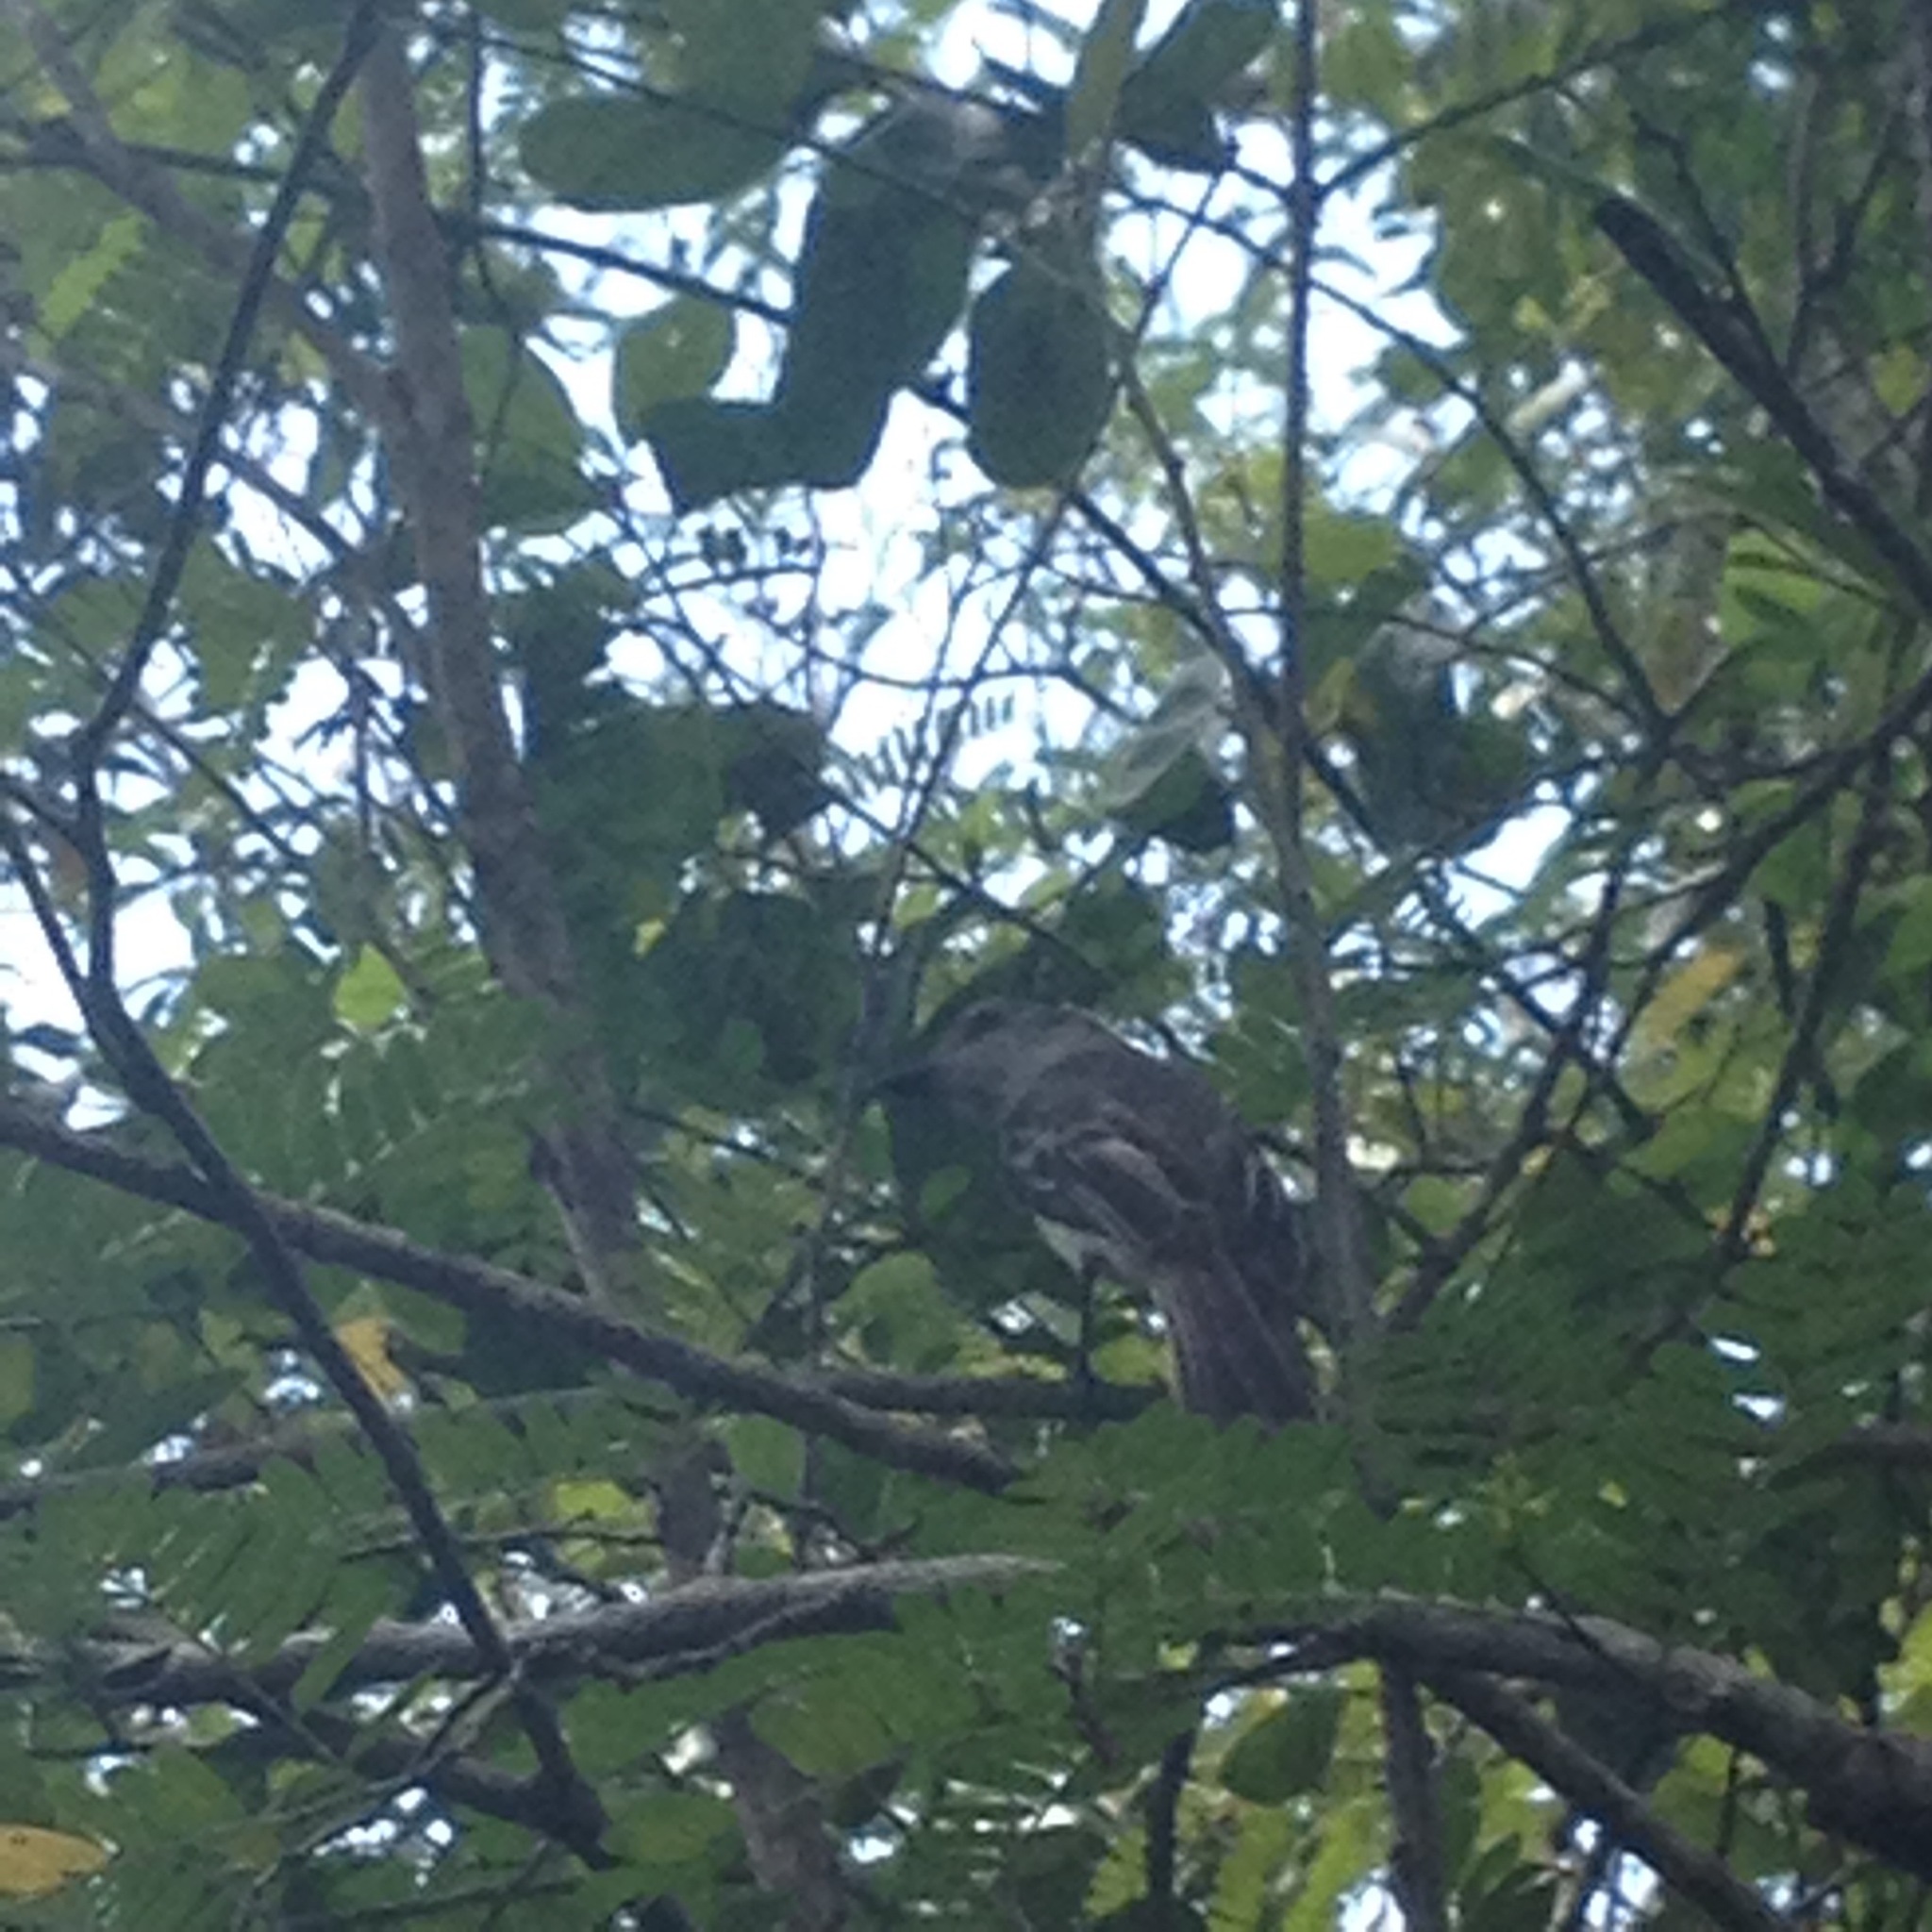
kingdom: Animalia
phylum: Chordata
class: Aves
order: Passeriformes
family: Tyrannidae
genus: Myiarchus
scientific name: Myiarchus sagrae
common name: La sagra's flycatcher
